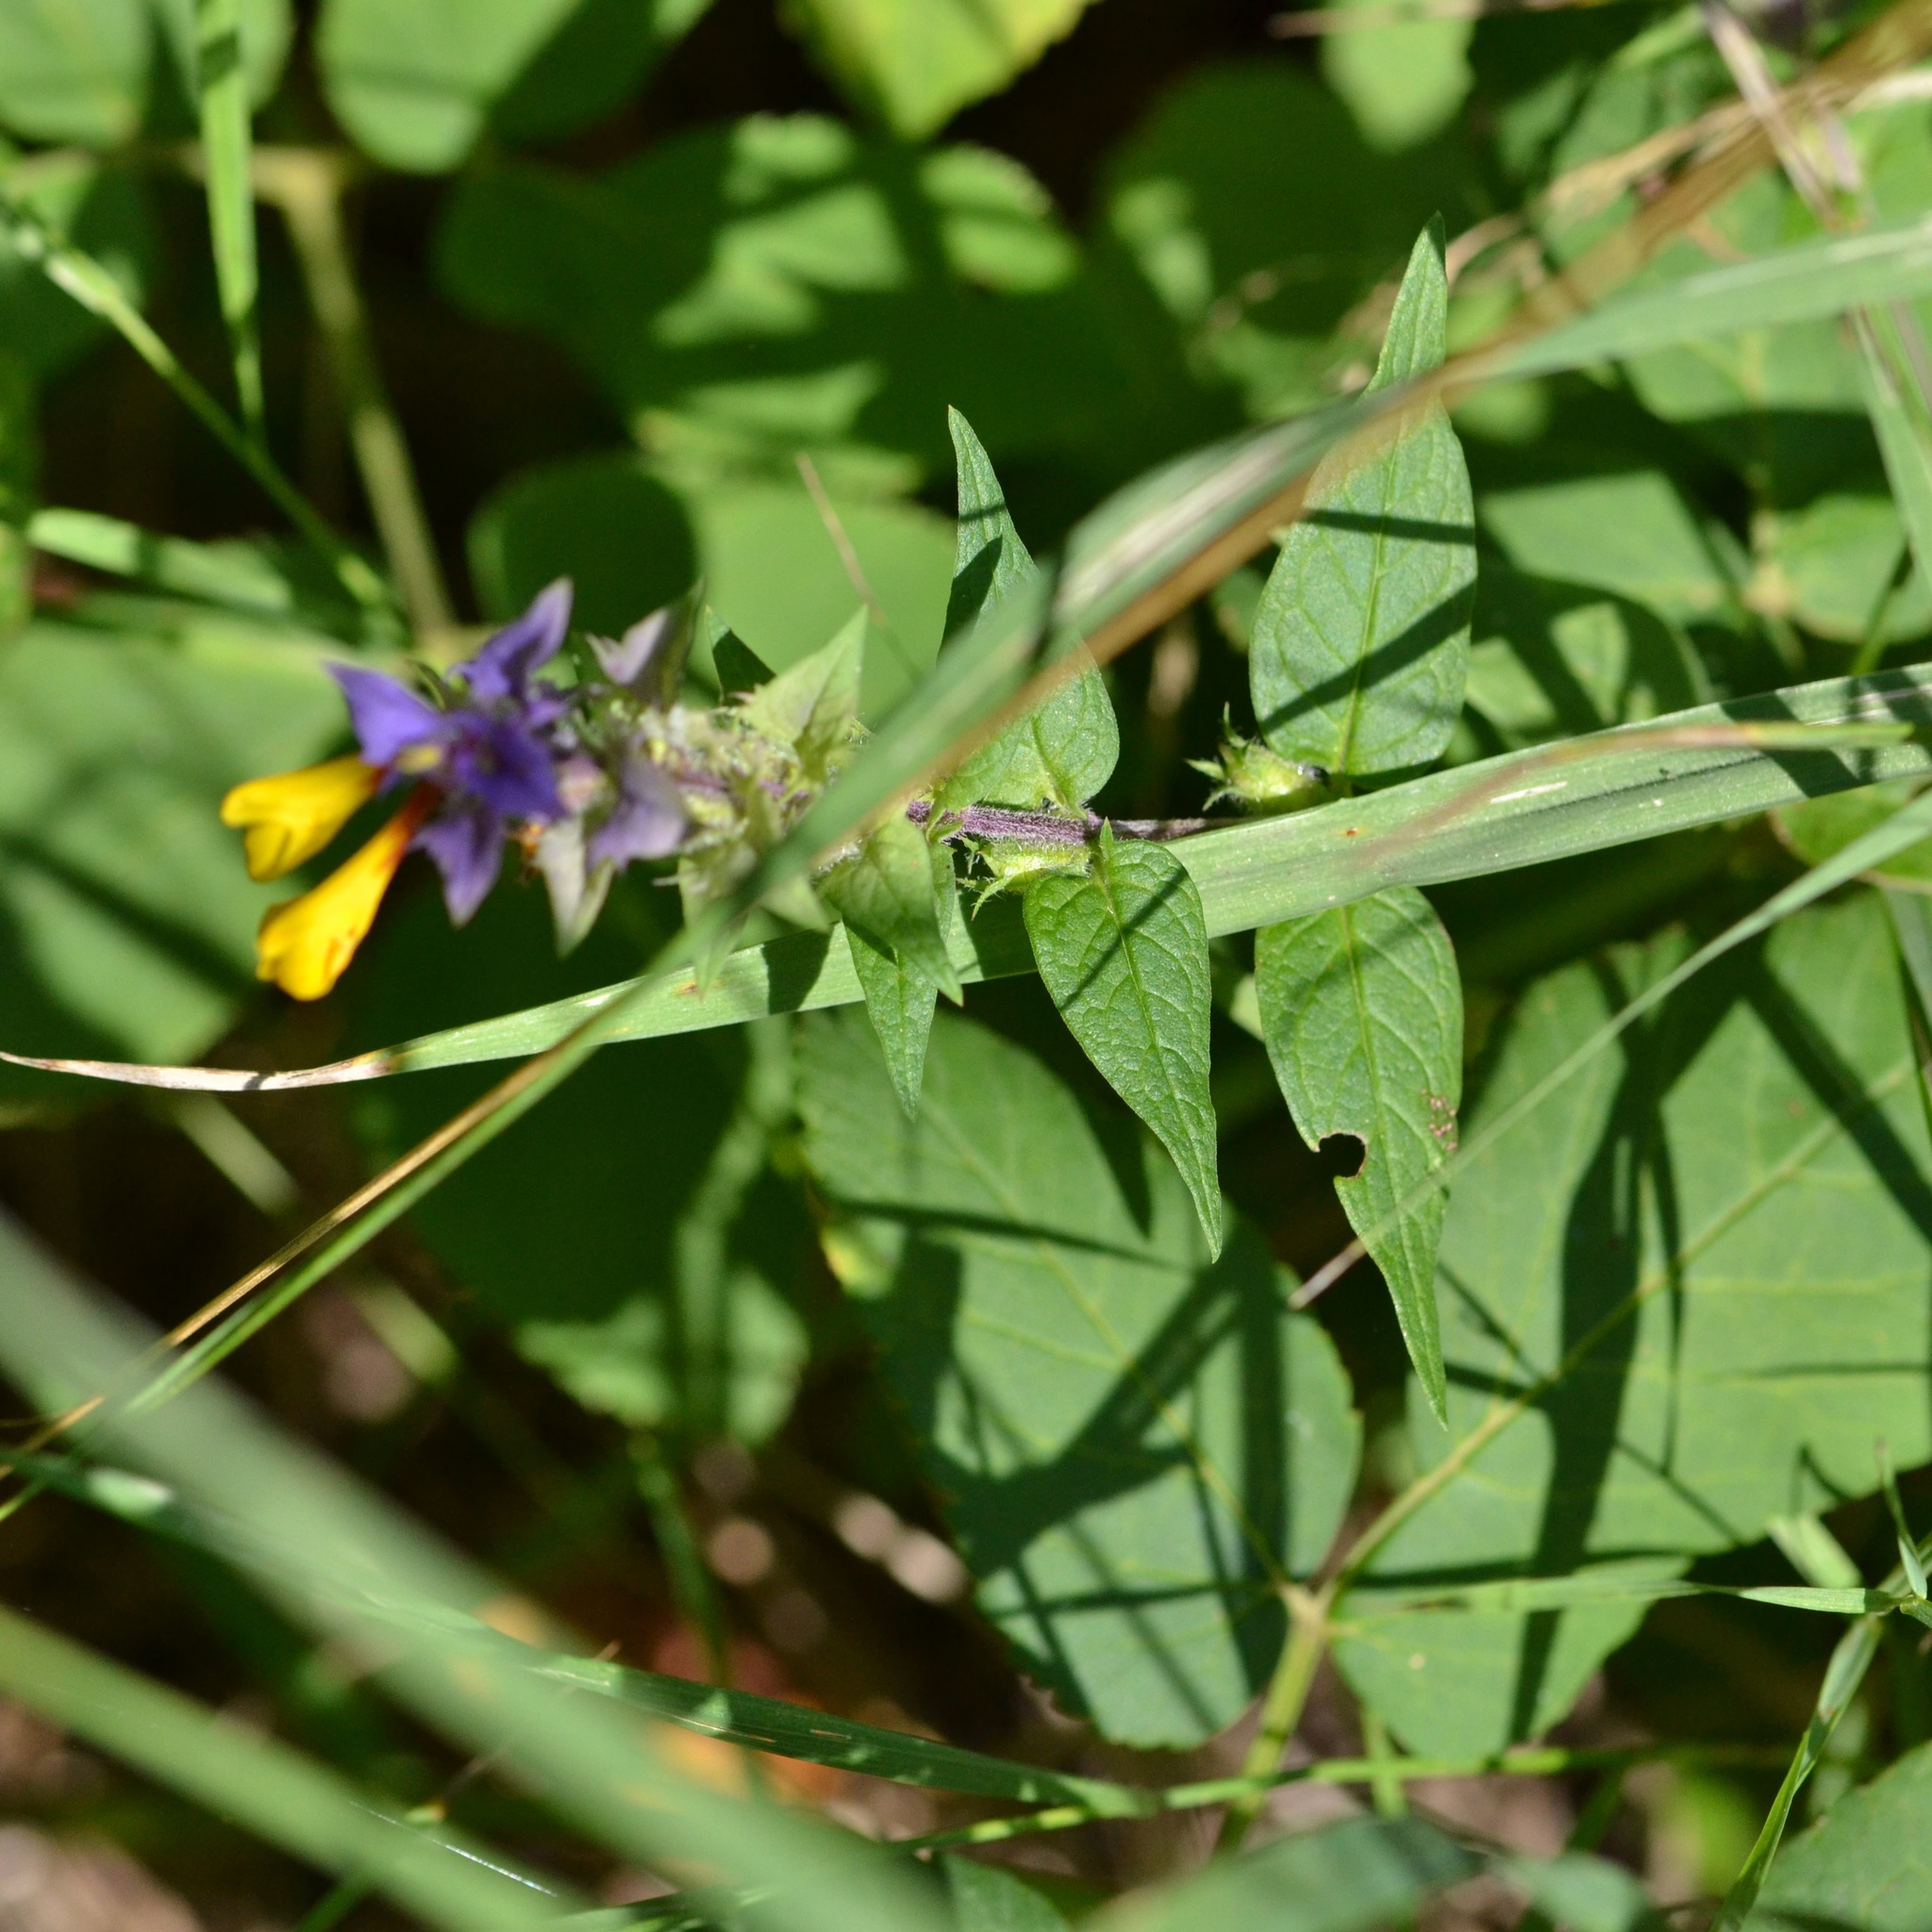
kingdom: Plantae
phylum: Tracheophyta
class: Magnoliopsida
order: Lamiales
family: Orobanchaceae
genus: Melampyrum
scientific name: Melampyrum nemorosum
